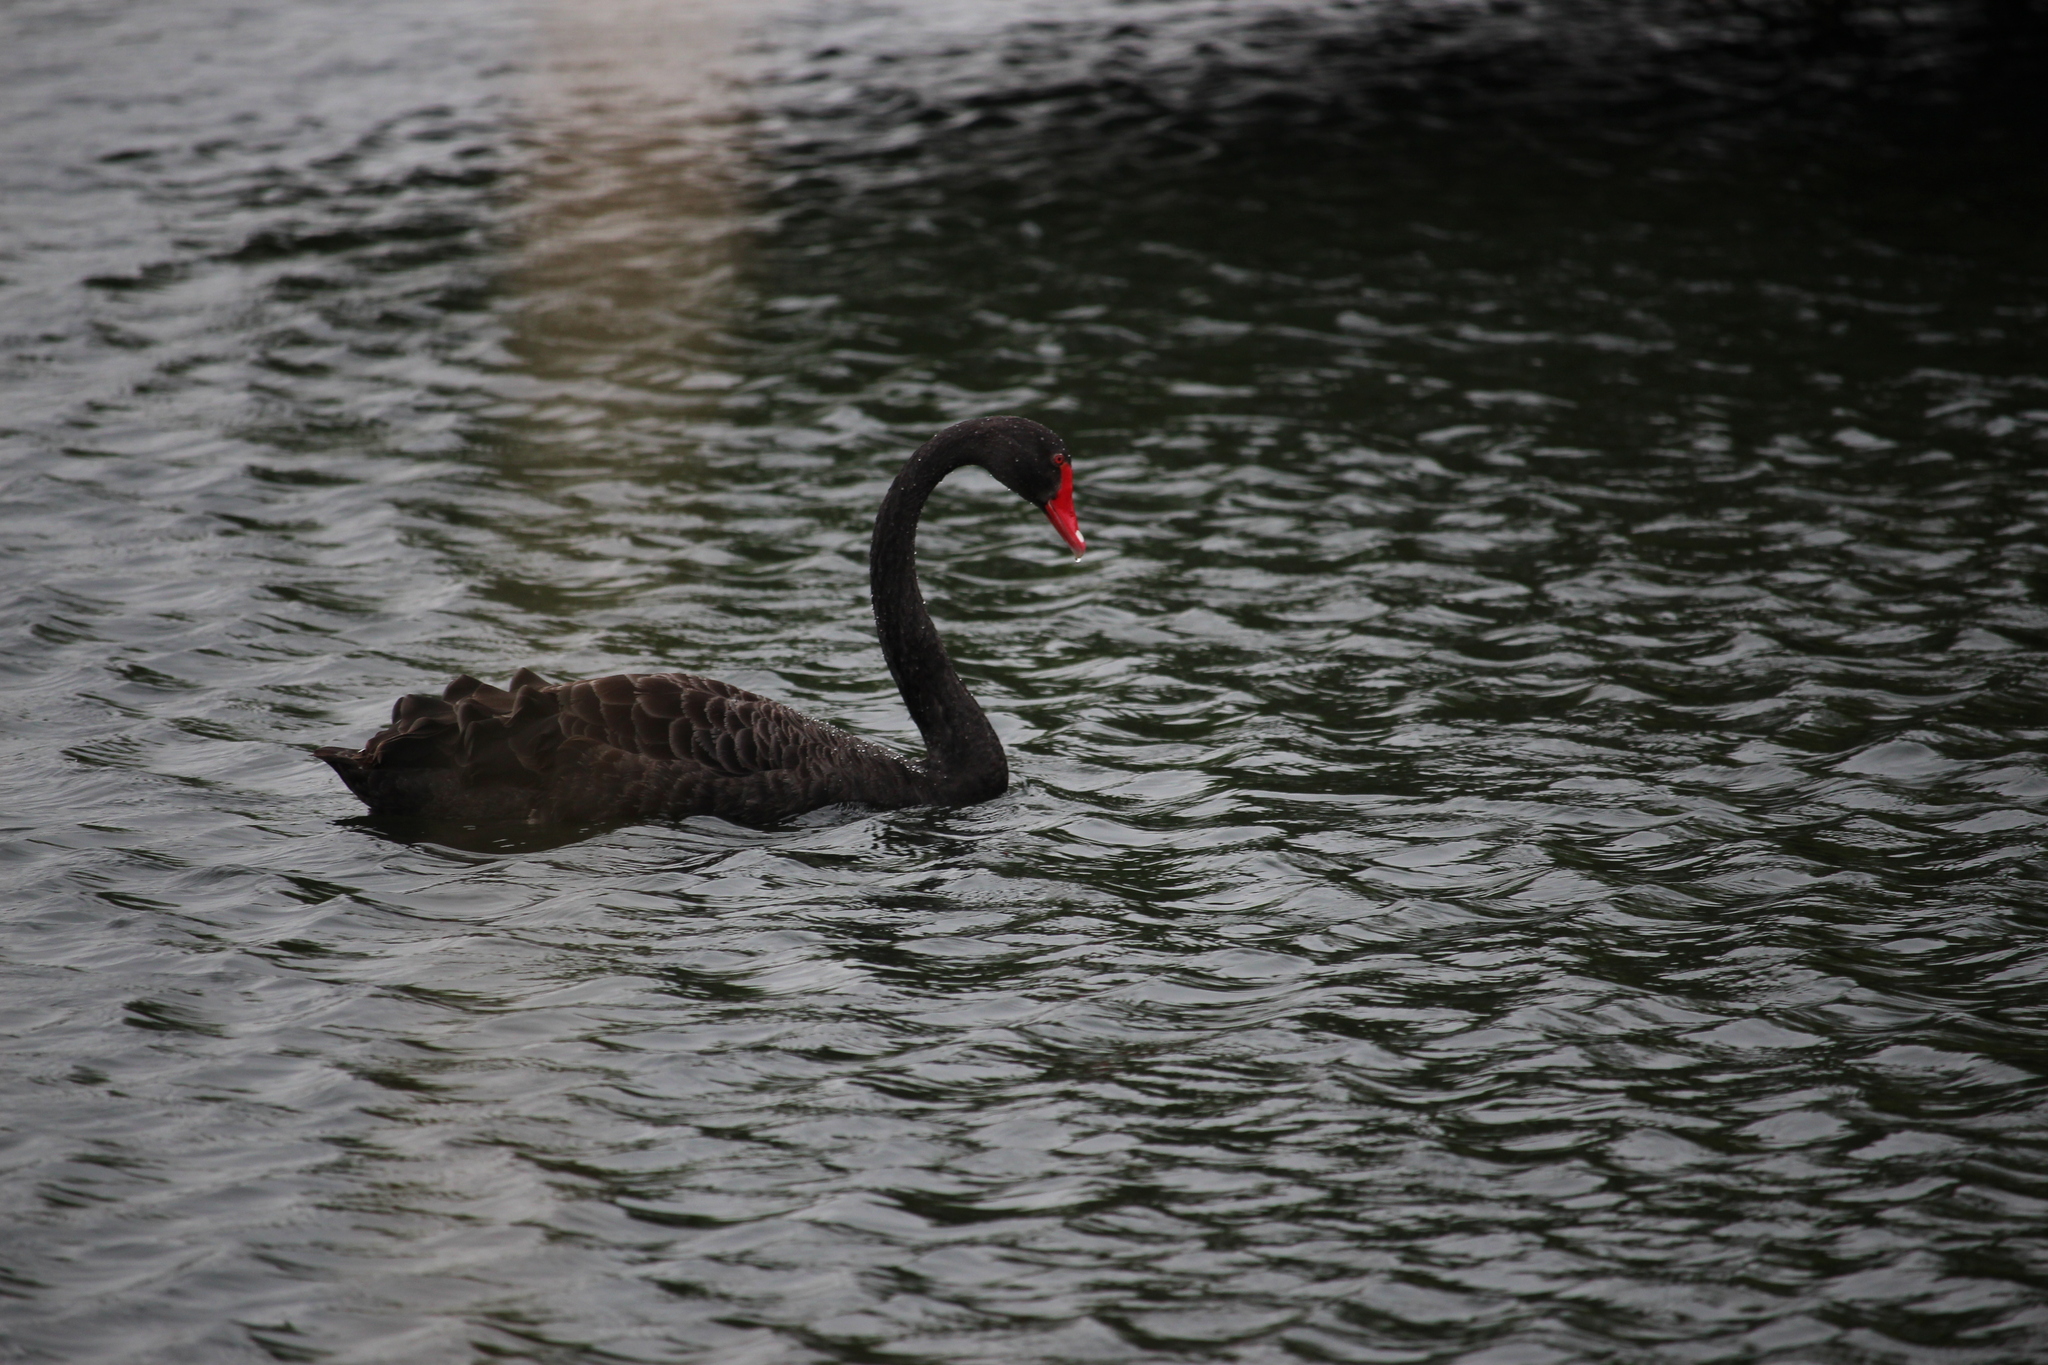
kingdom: Animalia
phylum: Chordata
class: Aves
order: Anseriformes
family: Anatidae
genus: Cygnus
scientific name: Cygnus atratus
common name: Black swan
